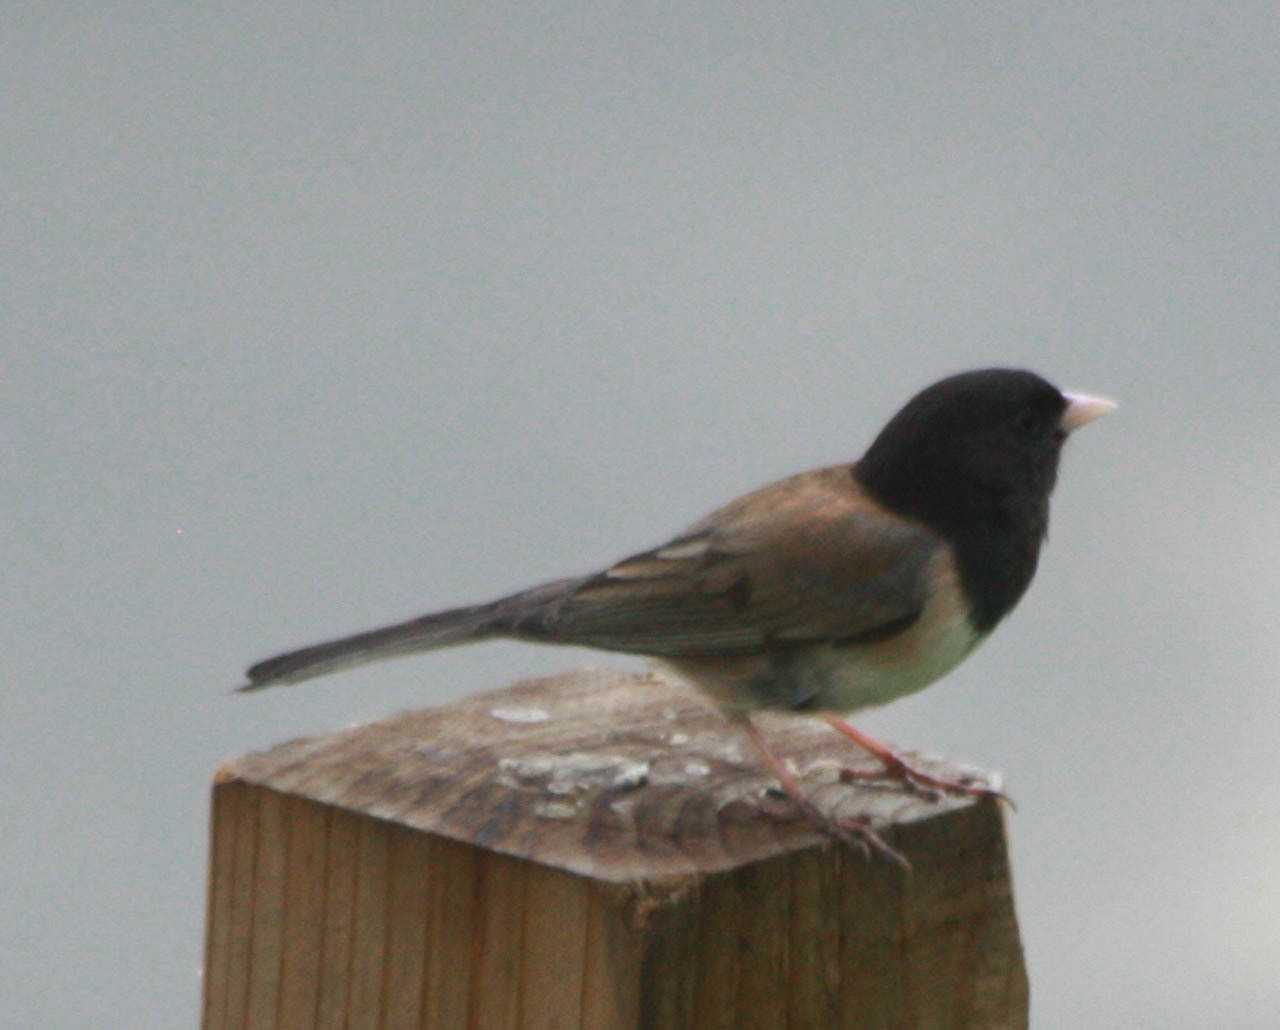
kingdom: Animalia
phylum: Chordata
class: Aves
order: Passeriformes
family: Passerellidae
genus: Junco
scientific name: Junco hyemalis
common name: Dark-eyed junco
